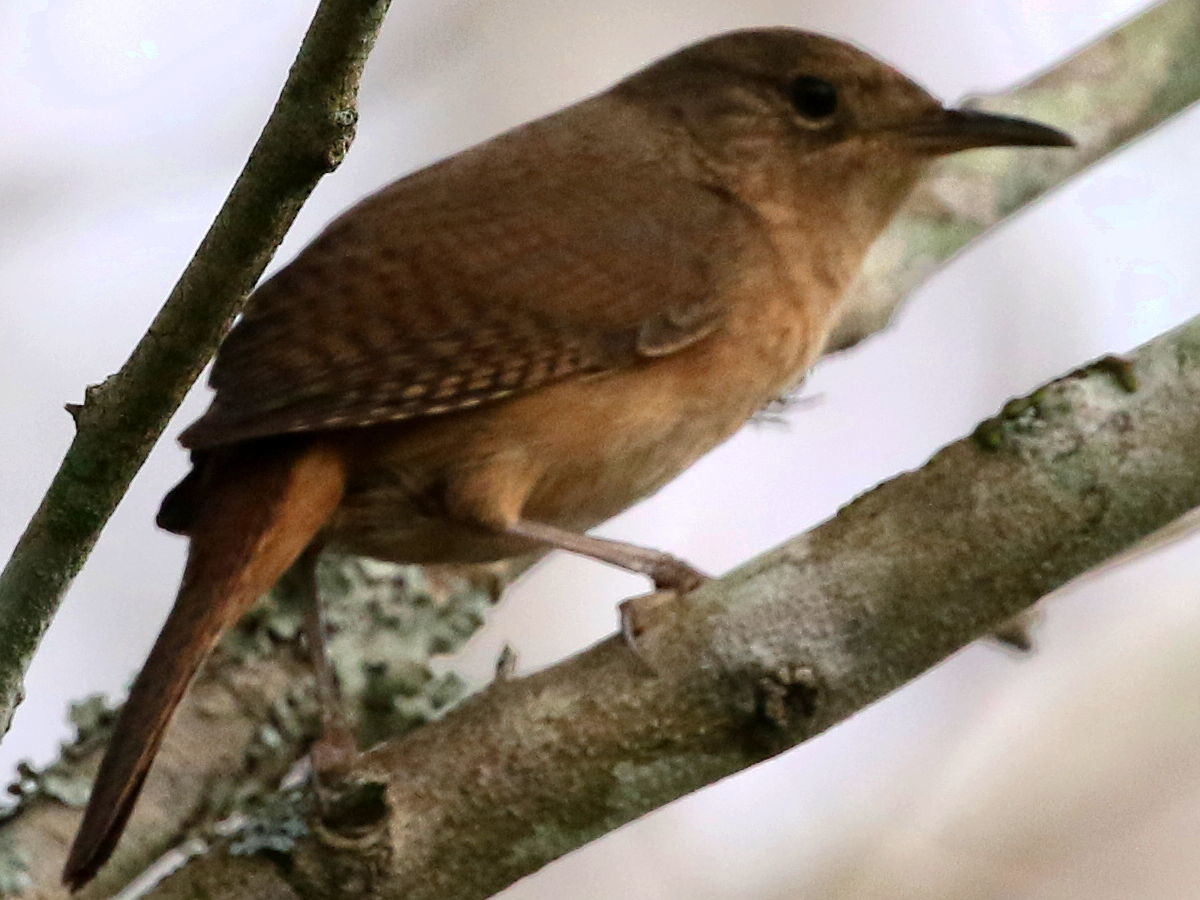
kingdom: Animalia
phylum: Chordata
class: Aves
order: Passeriformes
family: Troglodytidae
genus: Troglodytes
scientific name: Troglodytes aedon
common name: House wren
